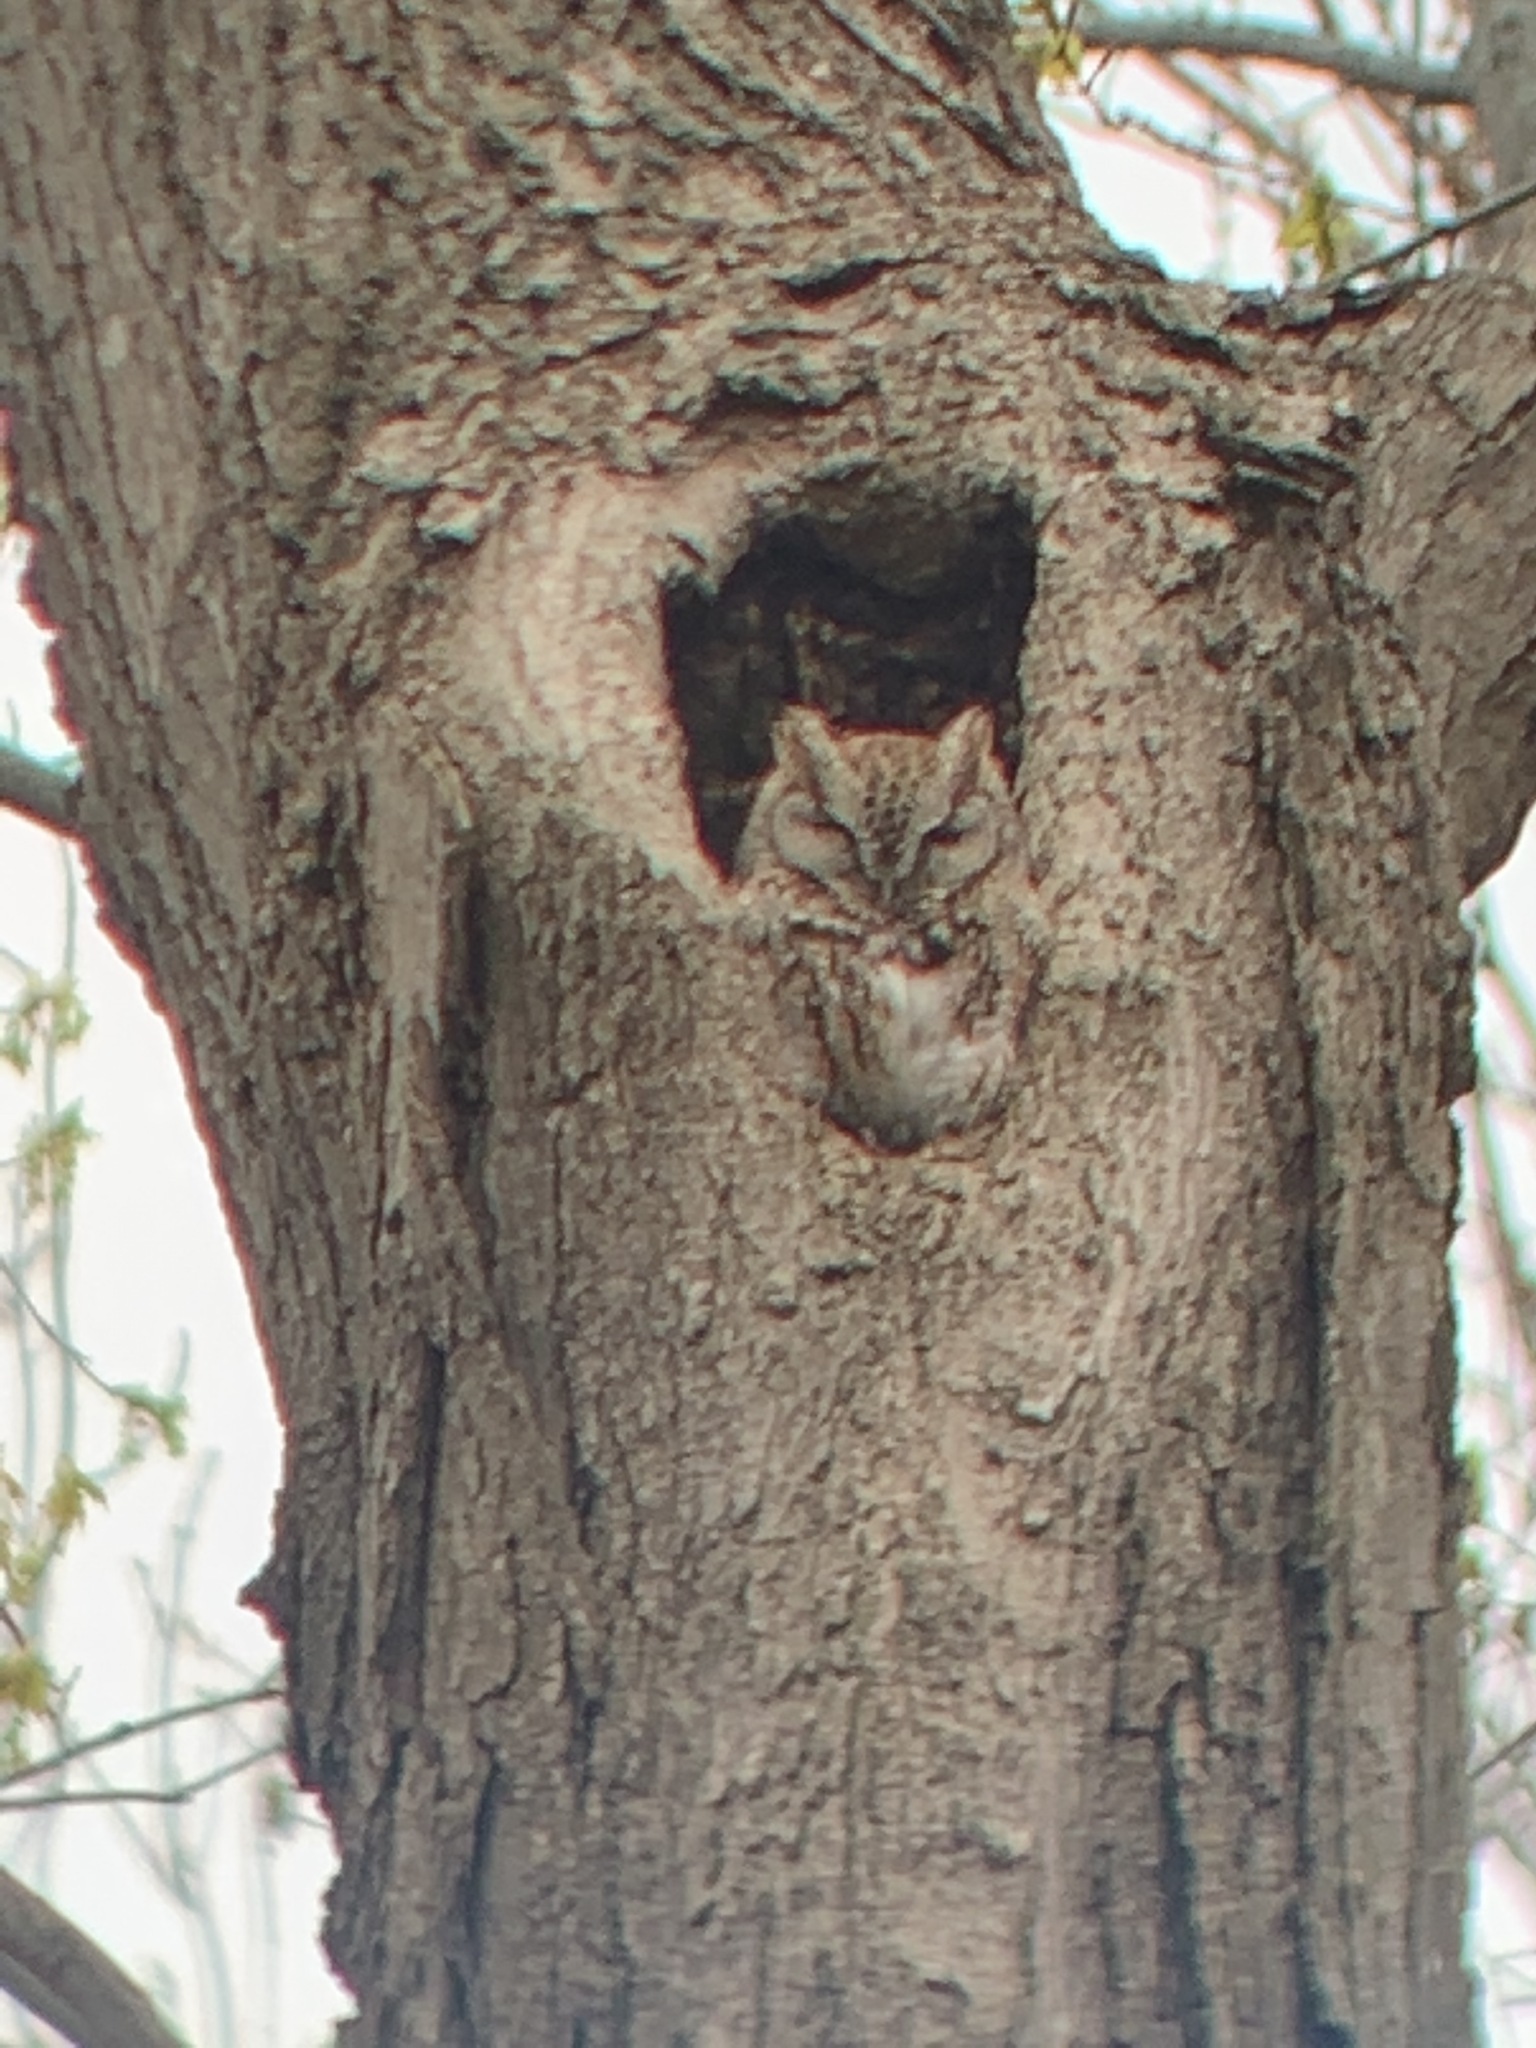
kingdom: Animalia
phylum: Chordata
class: Aves
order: Strigiformes
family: Strigidae
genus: Megascops
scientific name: Megascops asio
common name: Eastern screech-owl
